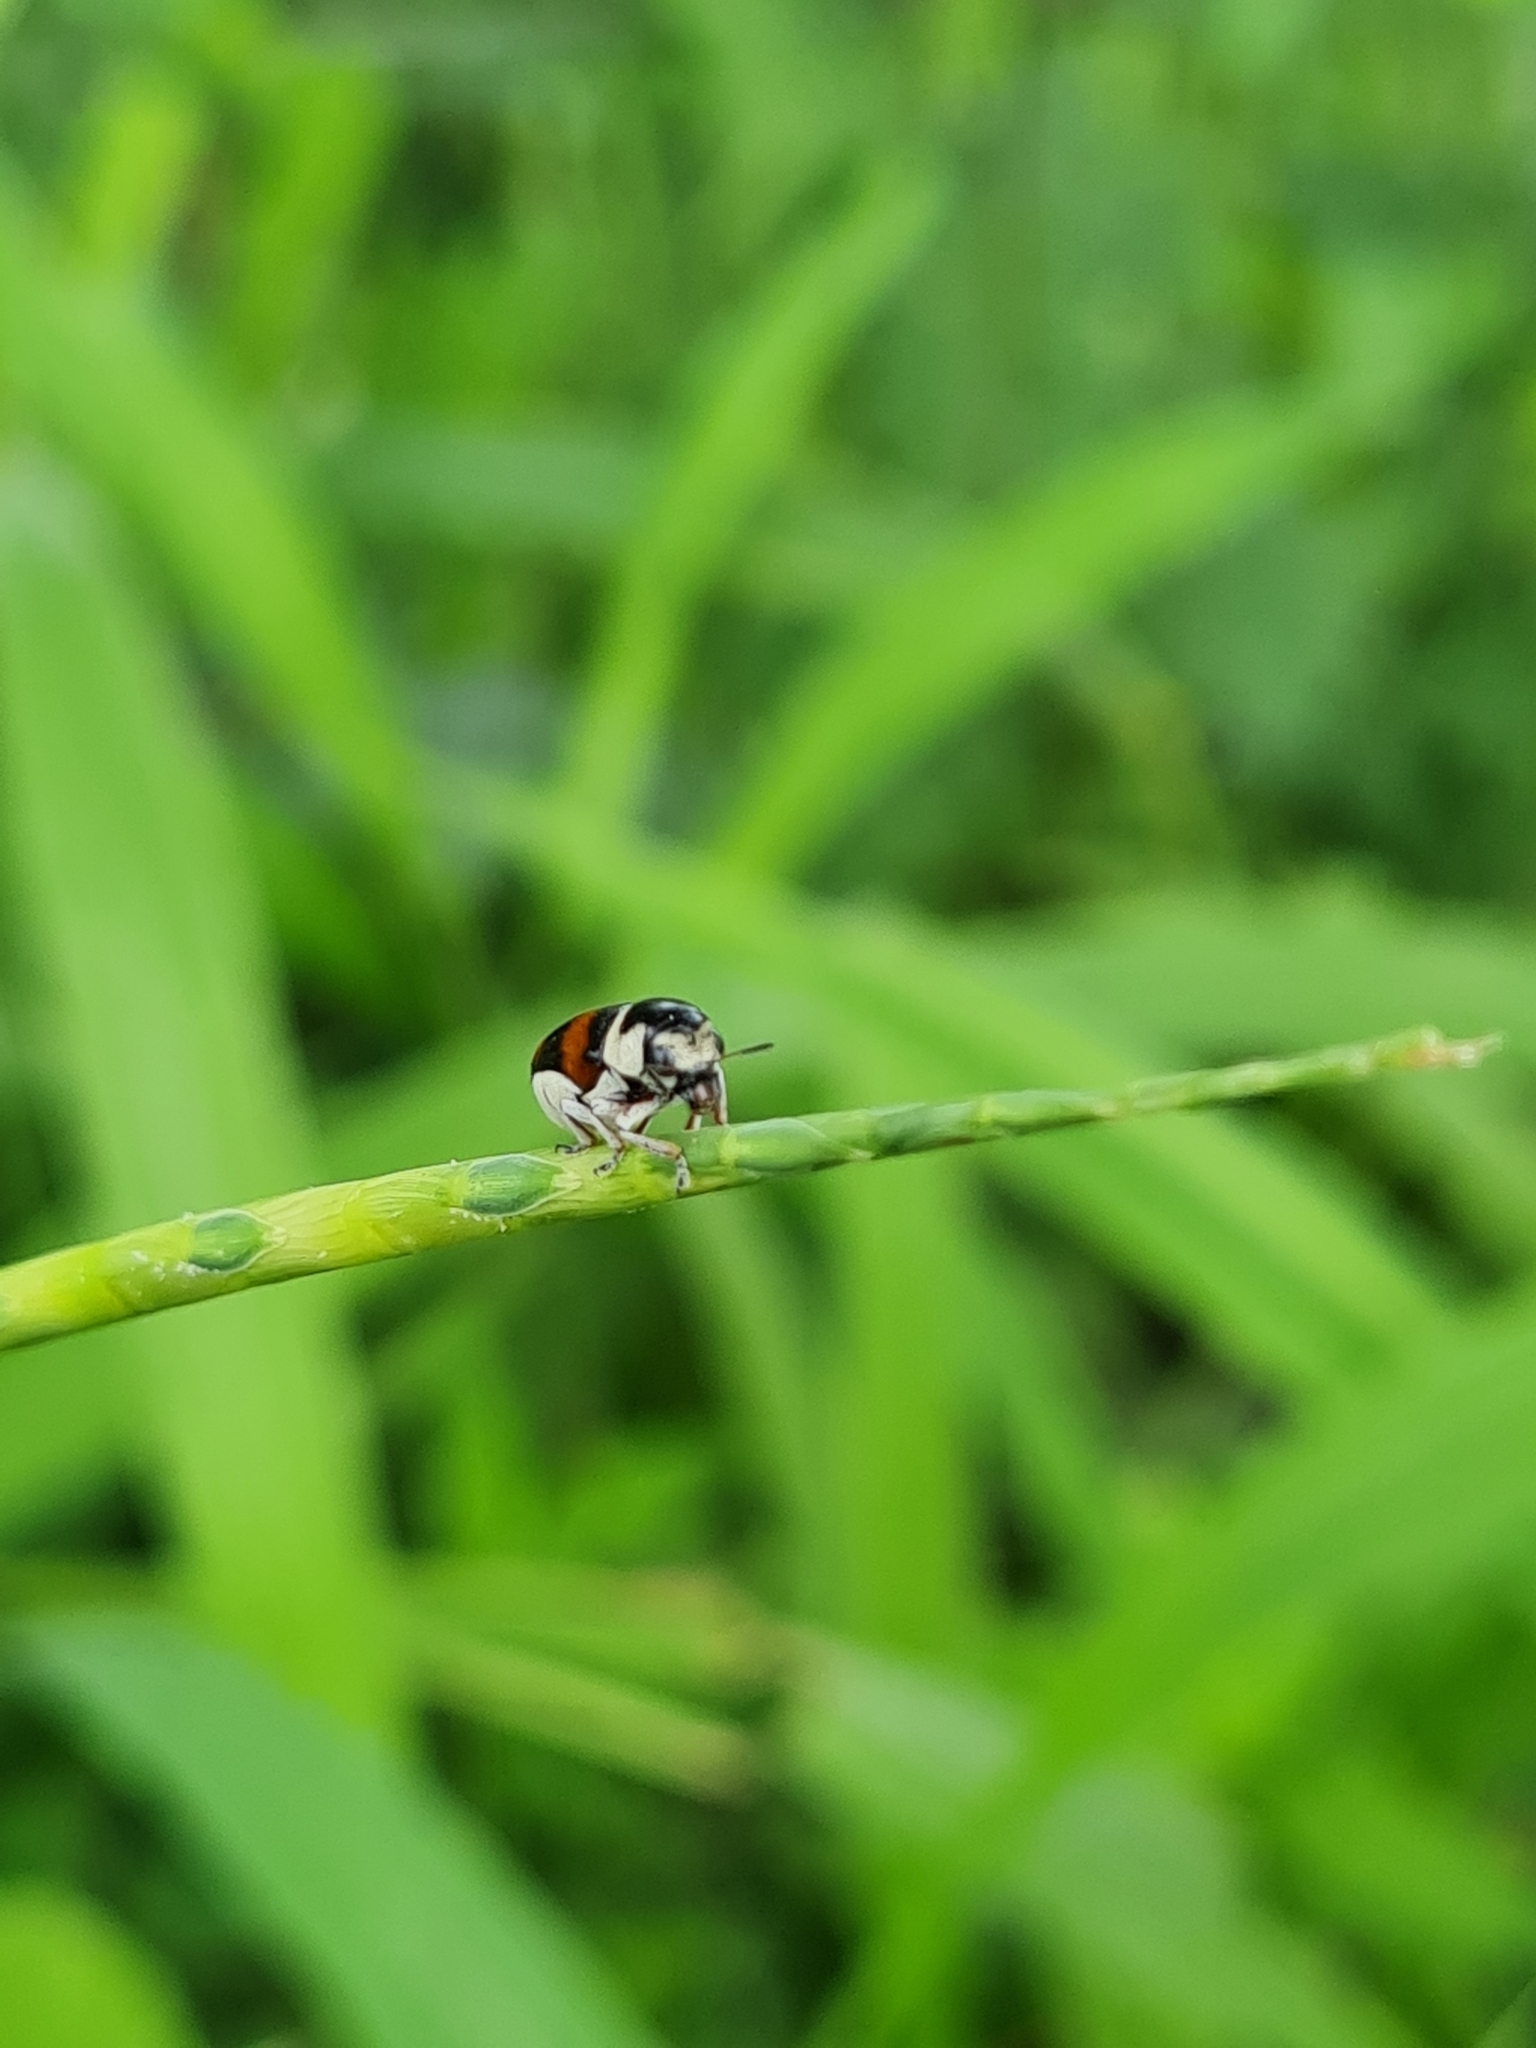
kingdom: Animalia
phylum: Arthropoda
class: Insecta
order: Coleoptera
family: Chrysomelidae
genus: Euryscopa
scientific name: Euryscopa cingulata
